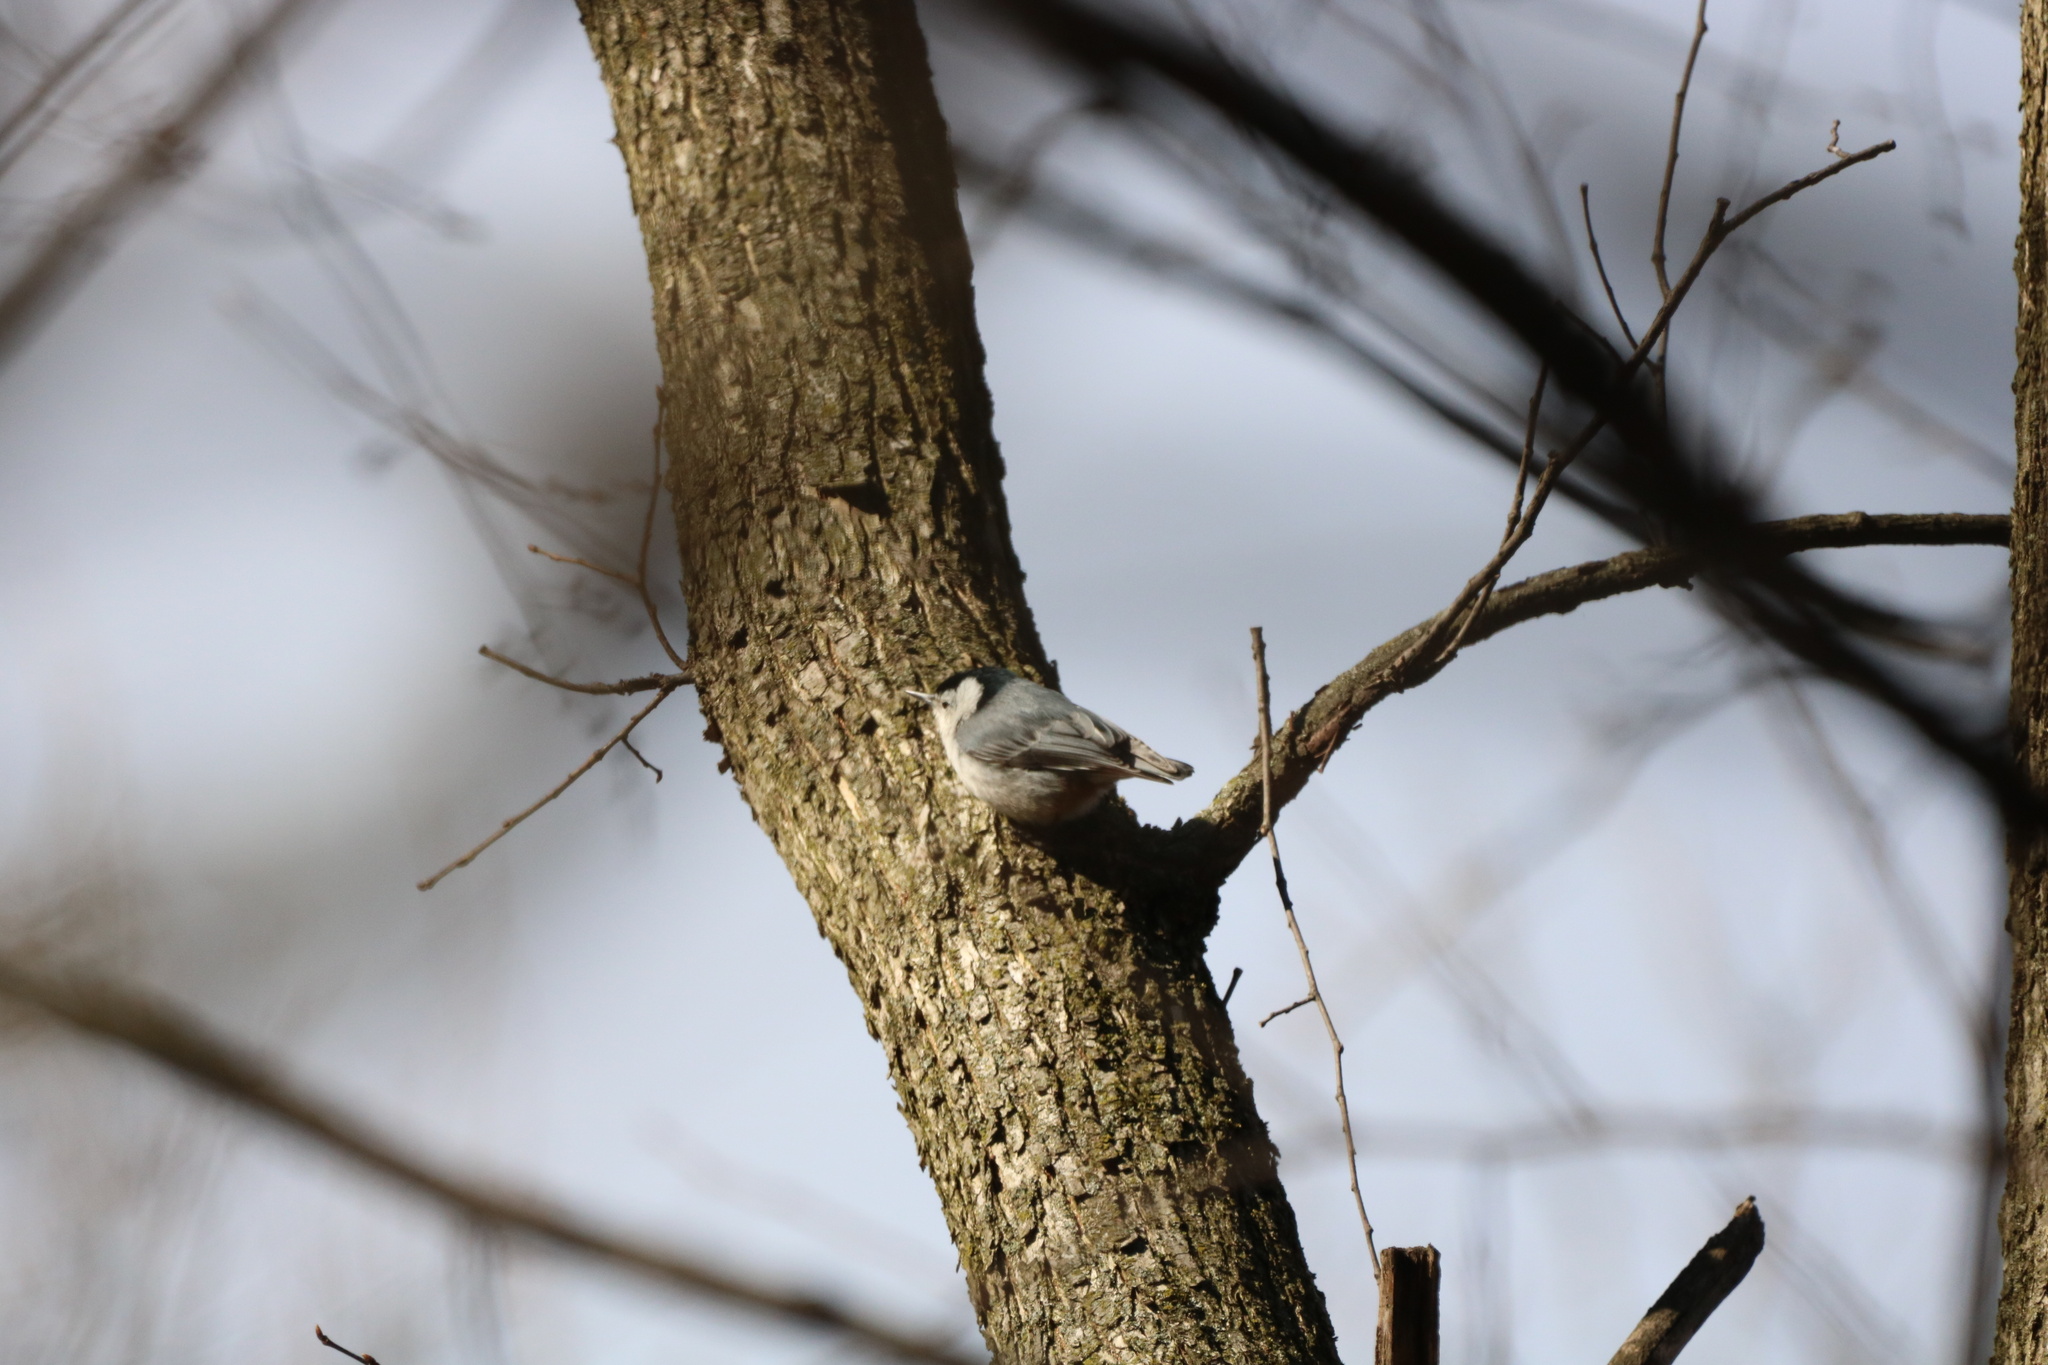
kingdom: Animalia
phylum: Chordata
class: Aves
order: Passeriformes
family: Sittidae
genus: Sitta
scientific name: Sitta carolinensis
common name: White-breasted nuthatch
